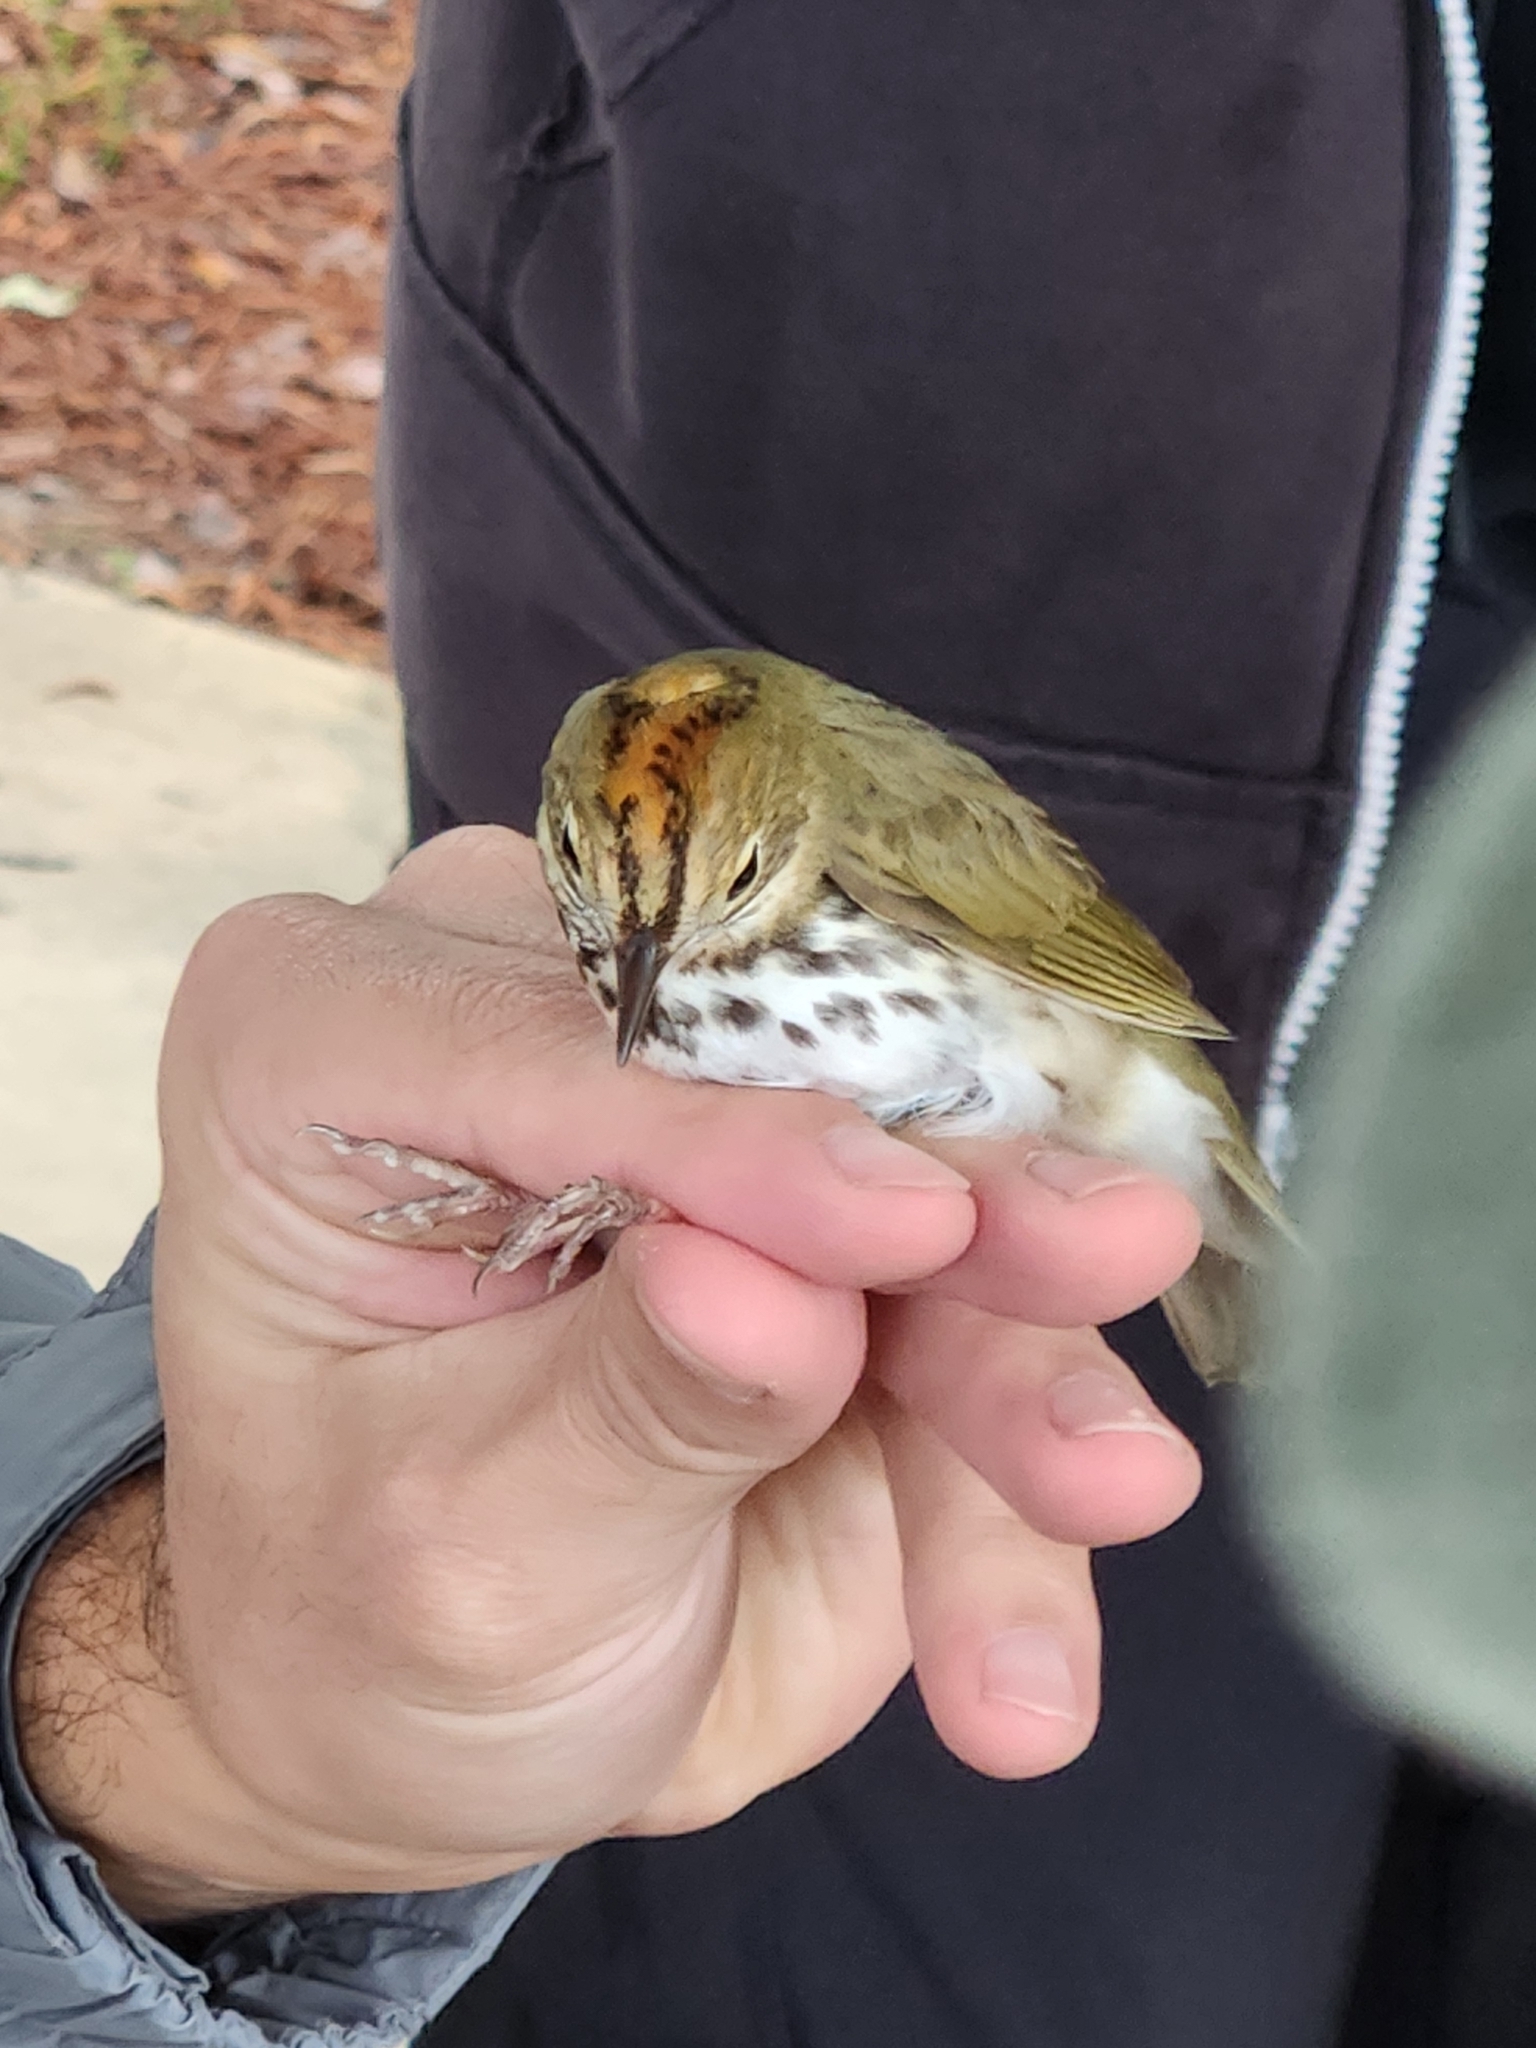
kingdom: Animalia
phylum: Chordata
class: Aves
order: Passeriformes
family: Parulidae
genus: Seiurus
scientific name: Seiurus aurocapilla
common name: Ovenbird
